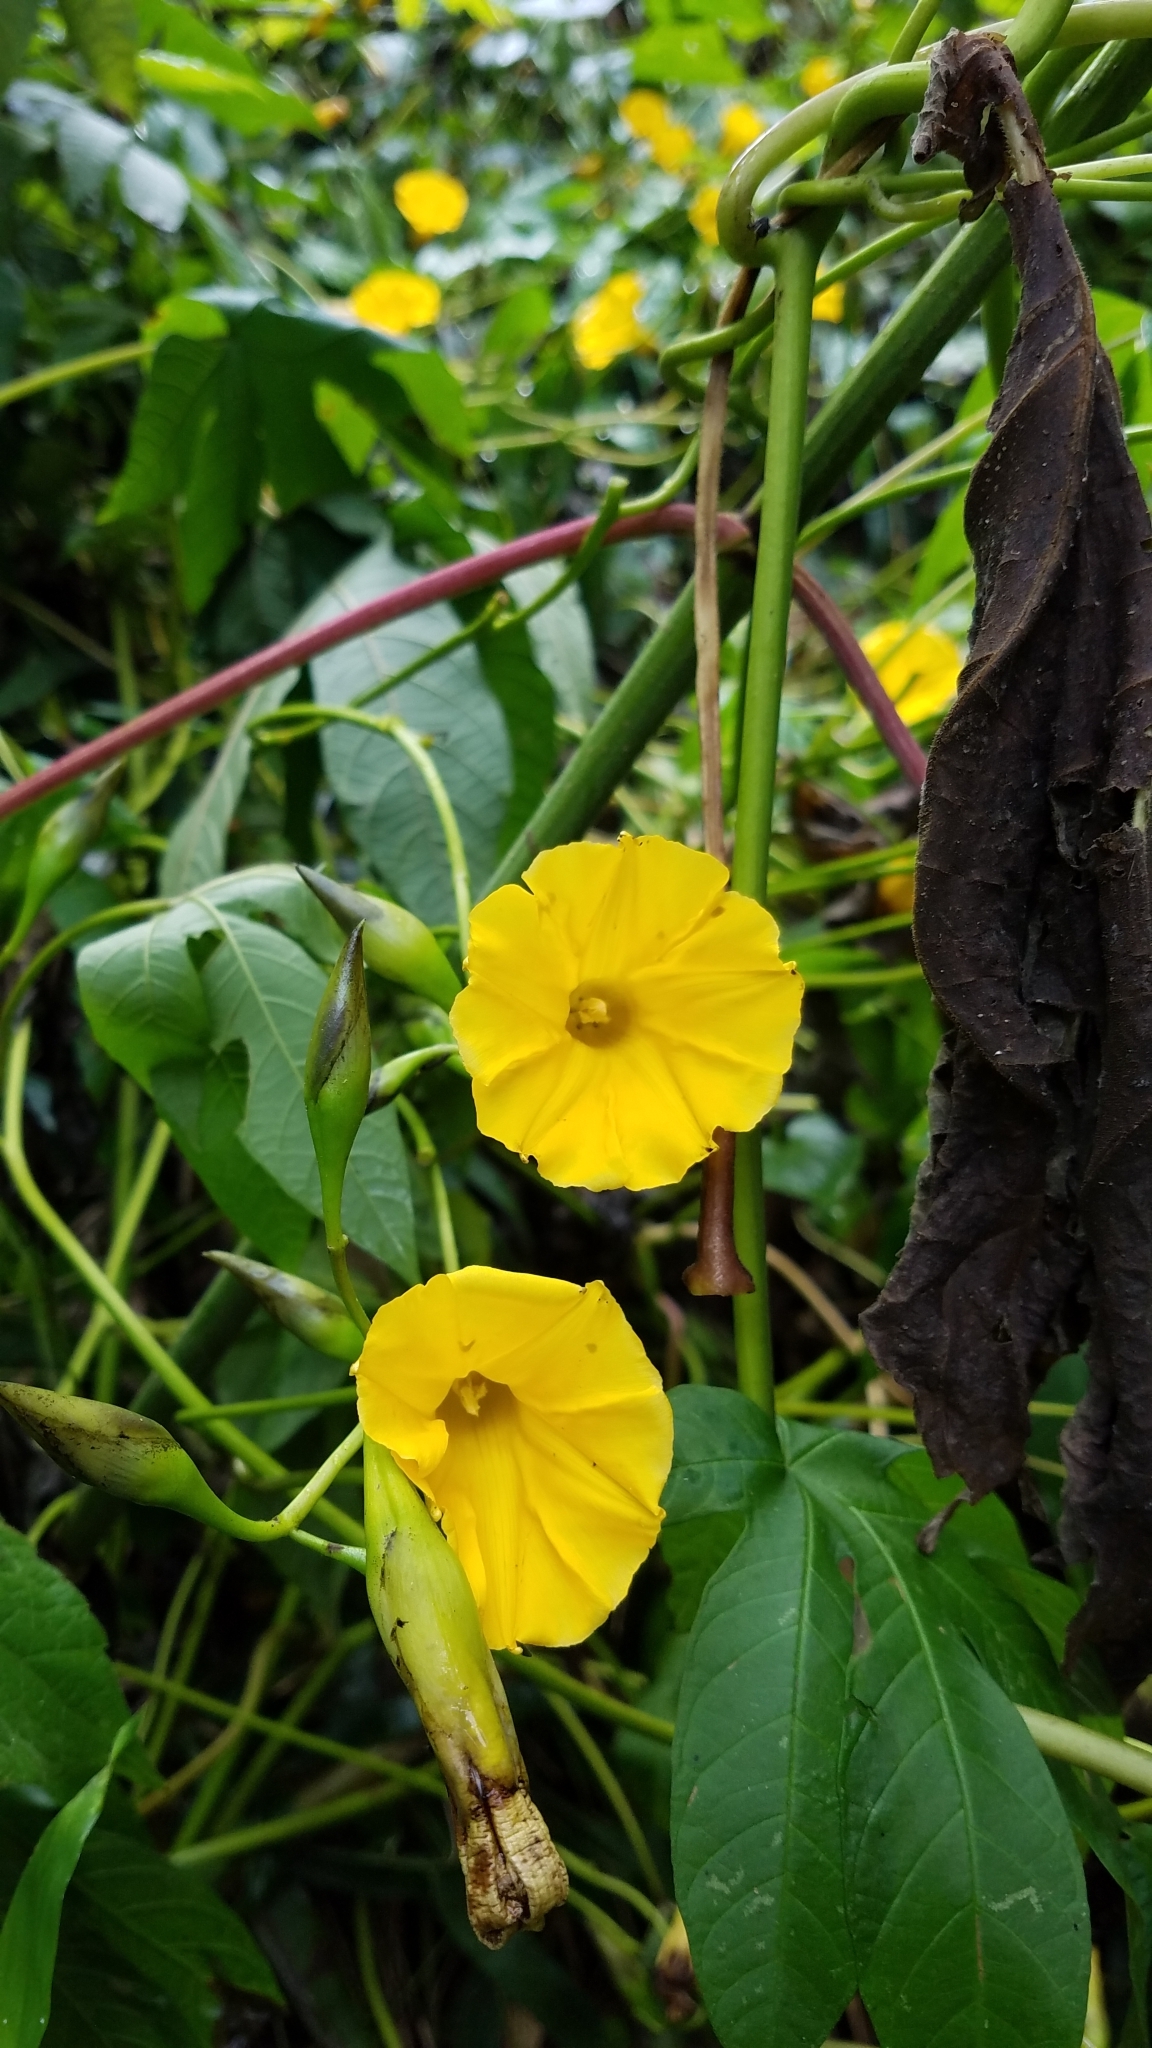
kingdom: Plantae
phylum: Tracheophyta
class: Magnoliopsida
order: Solanales
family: Convolvulaceae
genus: Distimake
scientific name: Distimake tuberosus
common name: Spanish arborvine
